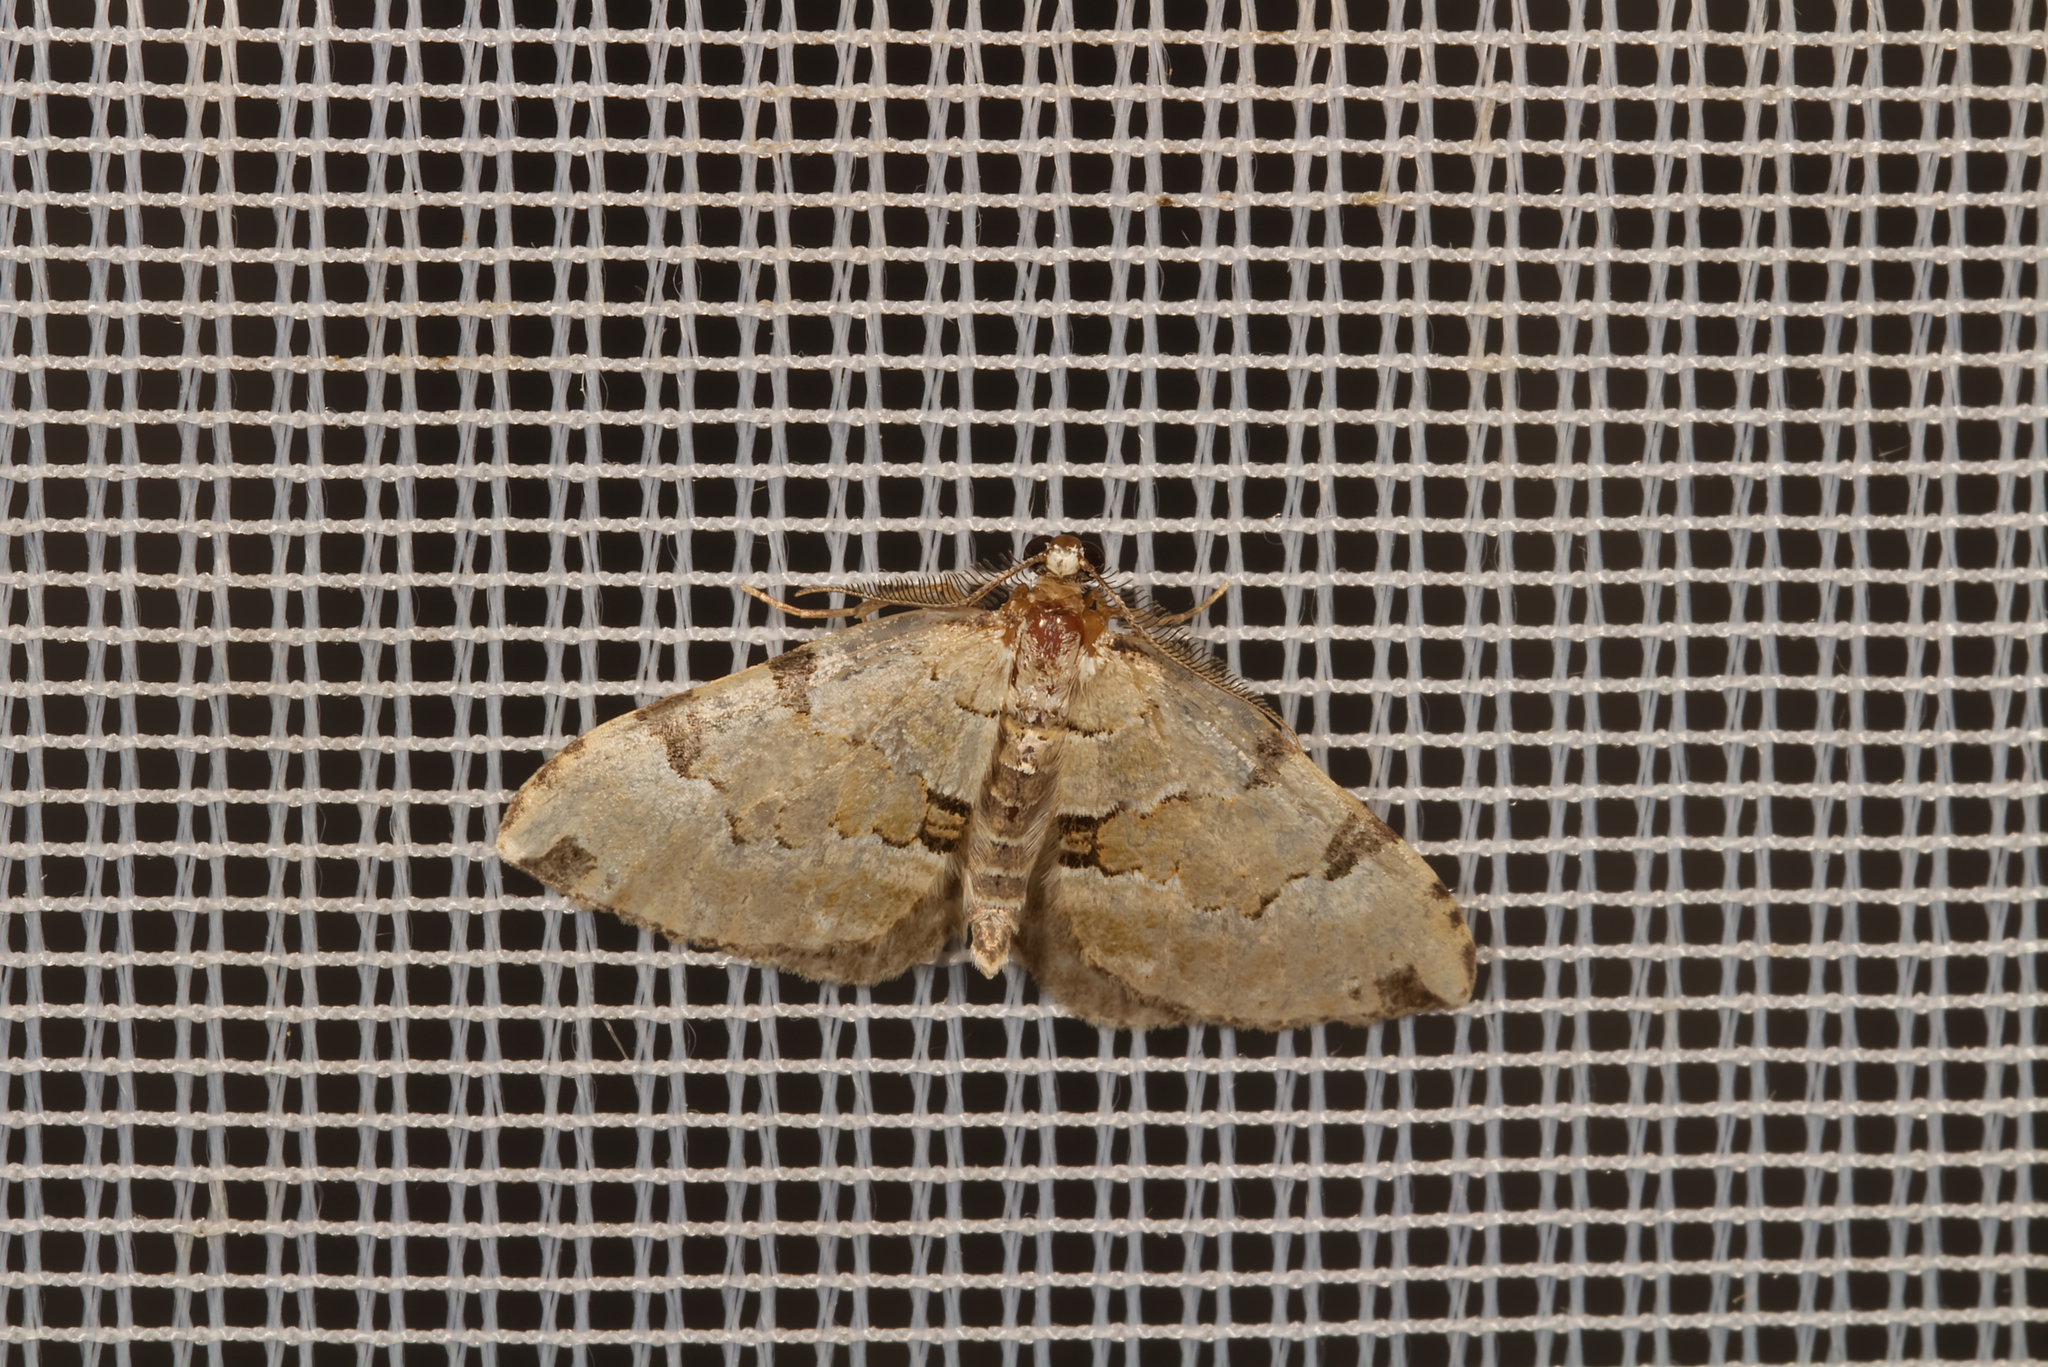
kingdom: Animalia
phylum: Arthropoda
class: Insecta
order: Lepidoptera
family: Geometridae
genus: Colostygia
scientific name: Colostygia pectinataria
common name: Green carpet
